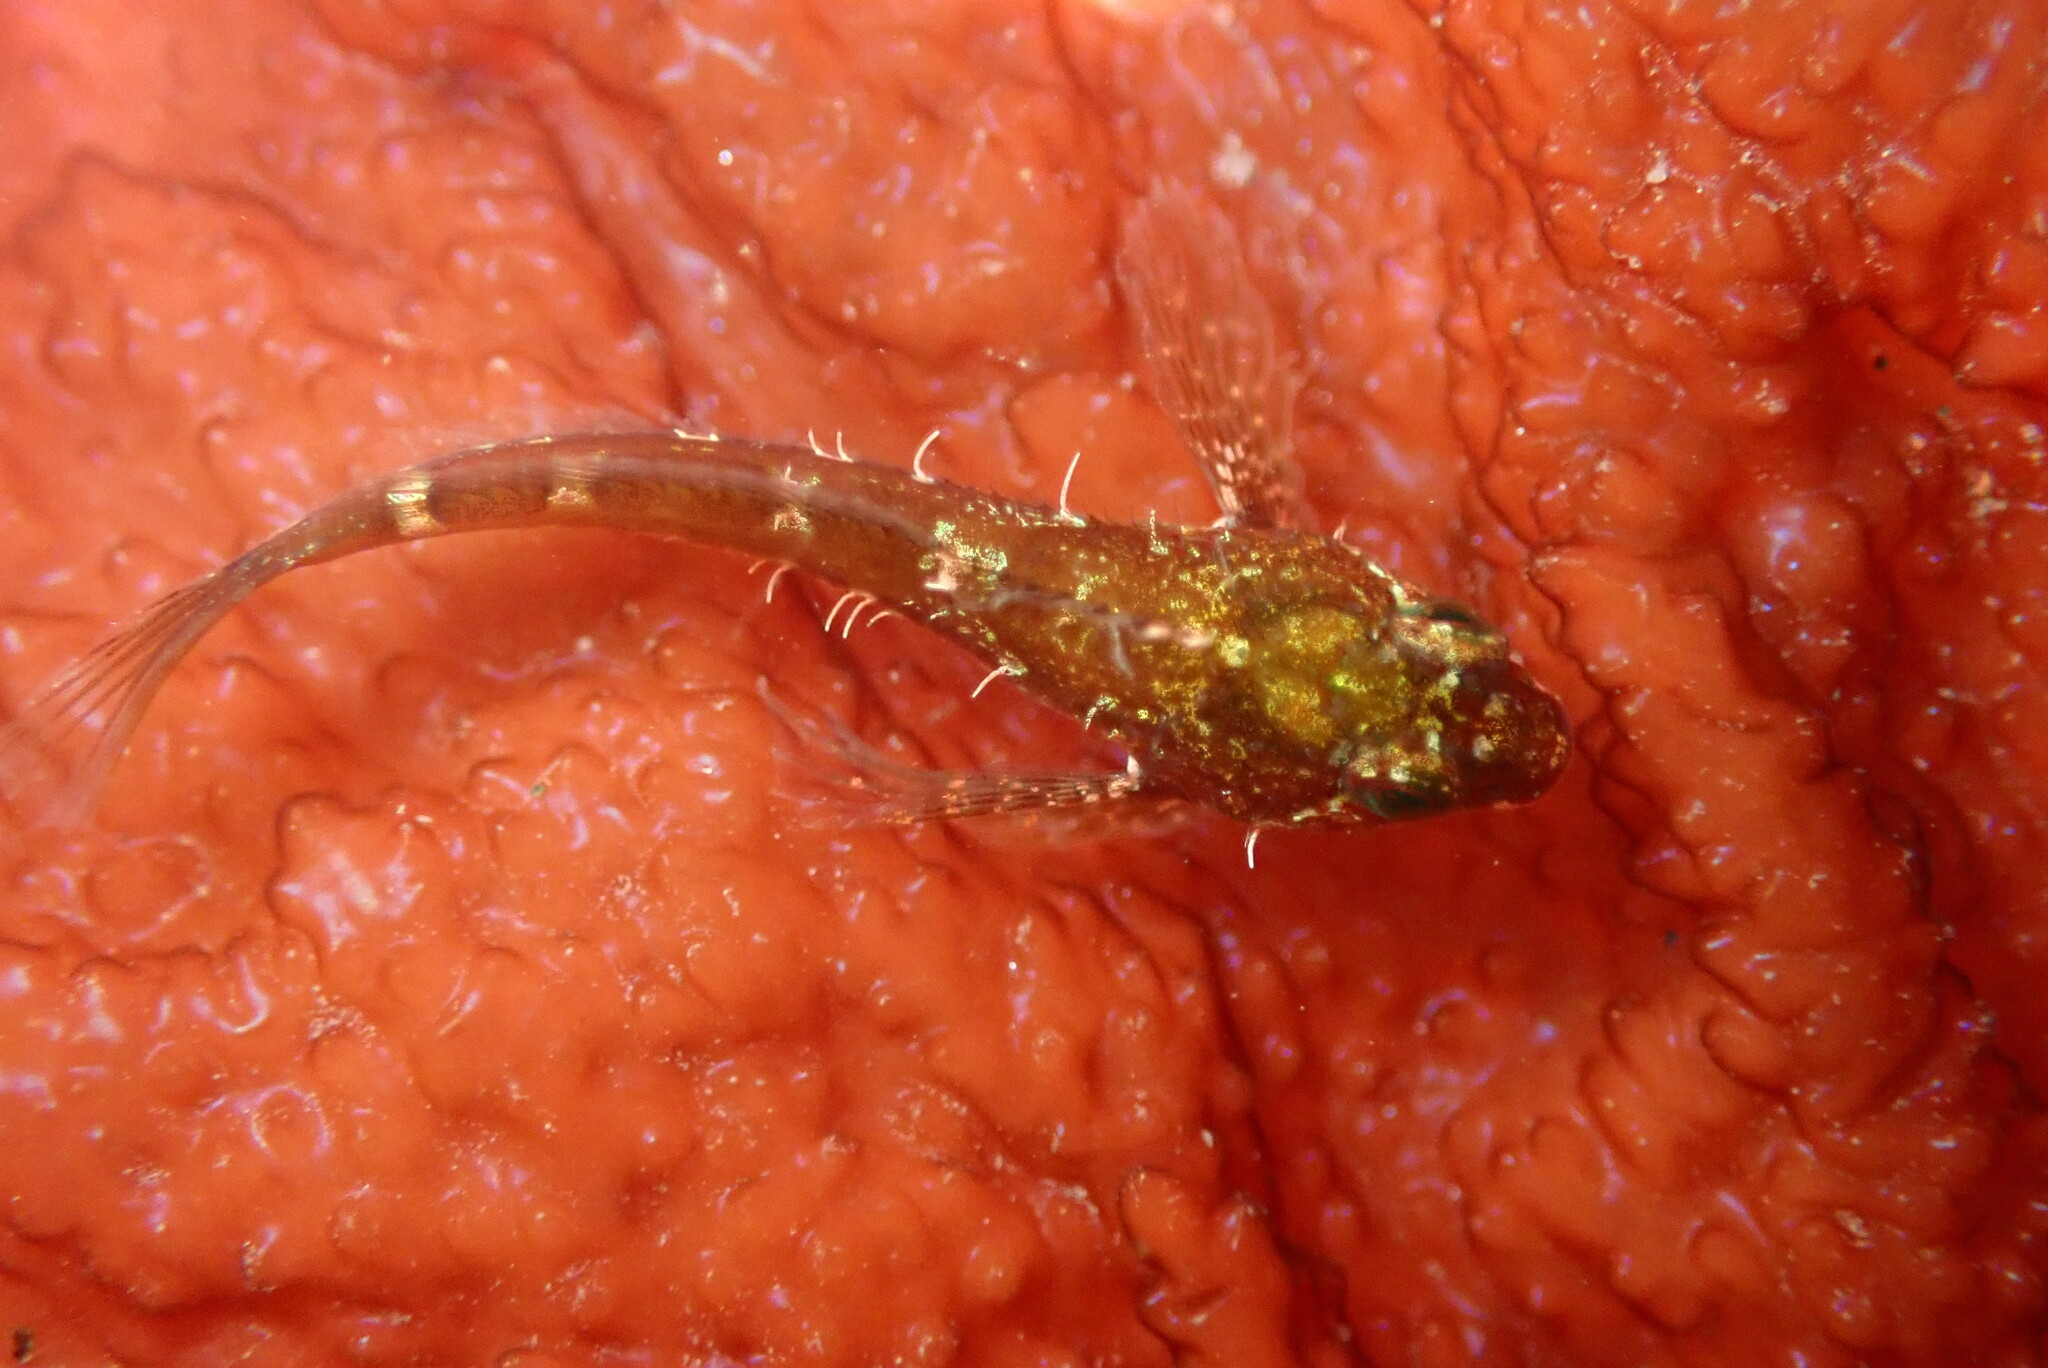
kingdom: Animalia
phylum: Chordata
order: Scorpaeniformes
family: Cottidae
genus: Oligocottus
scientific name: Oligocottus snyderi
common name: Fluffy sculpin
